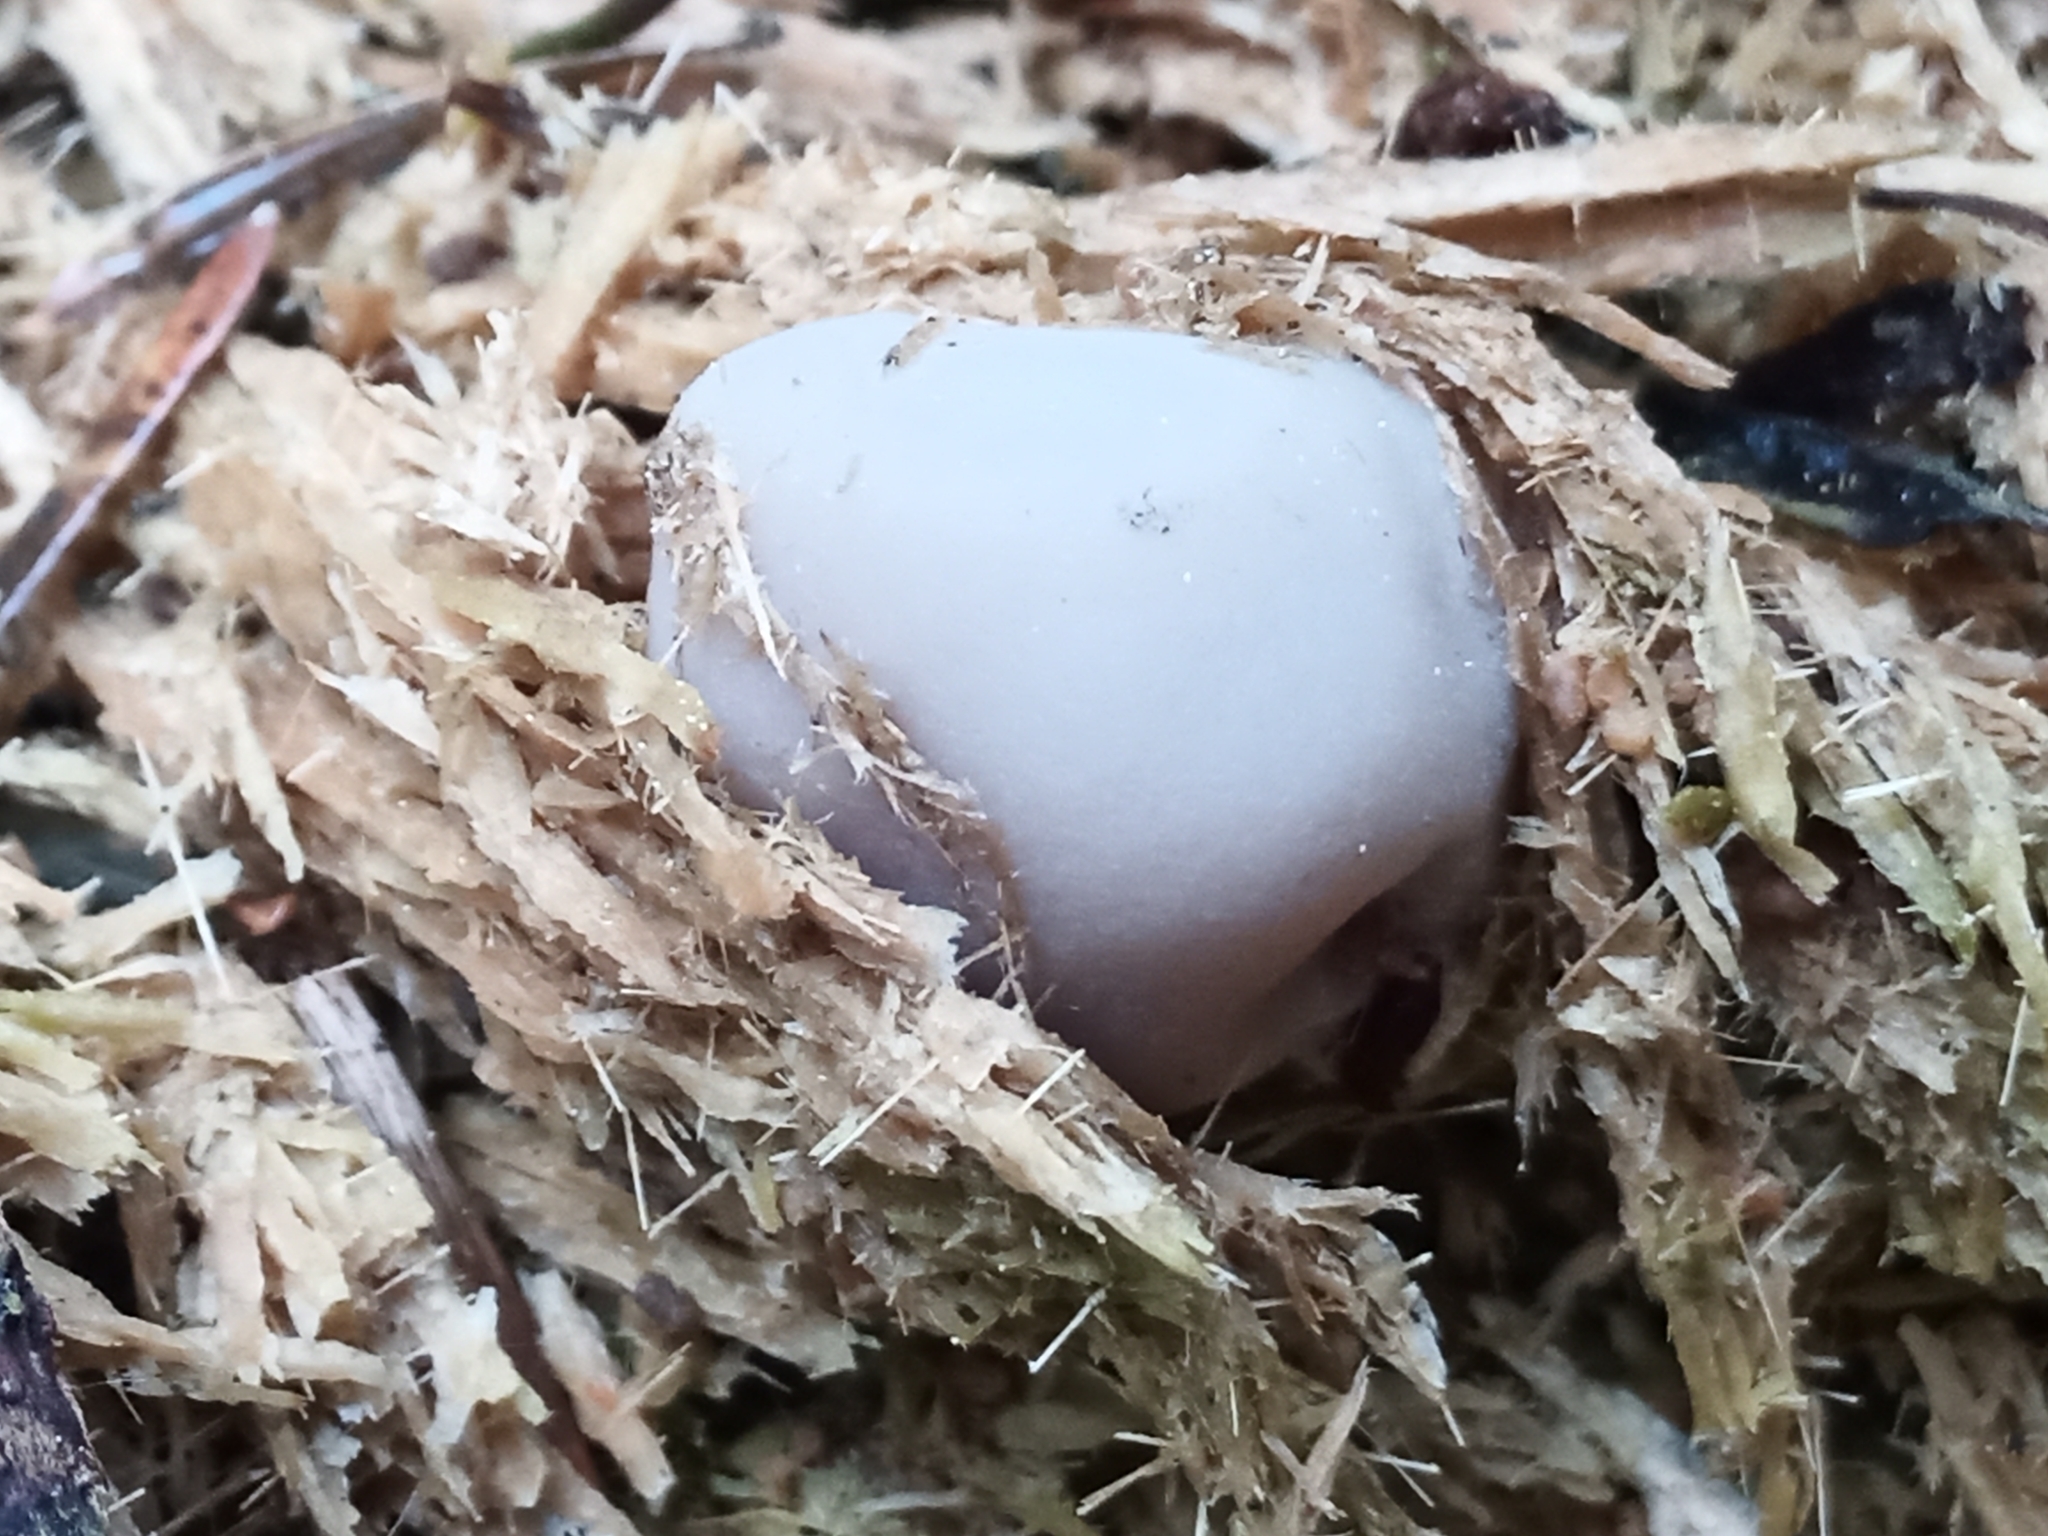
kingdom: Fungi
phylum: Ascomycota
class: Pezizomycetes
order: Pezizales
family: Discinaceae
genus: Discina
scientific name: Discina ancilis
